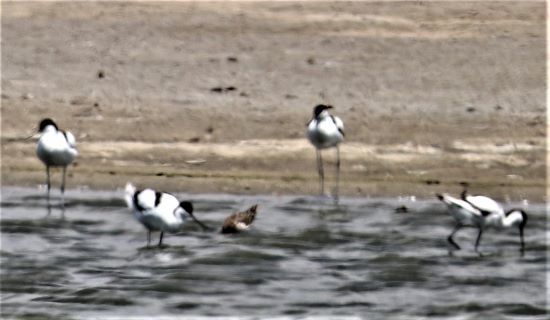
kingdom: Animalia
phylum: Chordata
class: Aves
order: Charadriiformes
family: Recurvirostridae
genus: Recurvirostra
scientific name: Recurvirostra avosetta
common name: Pied avocet
